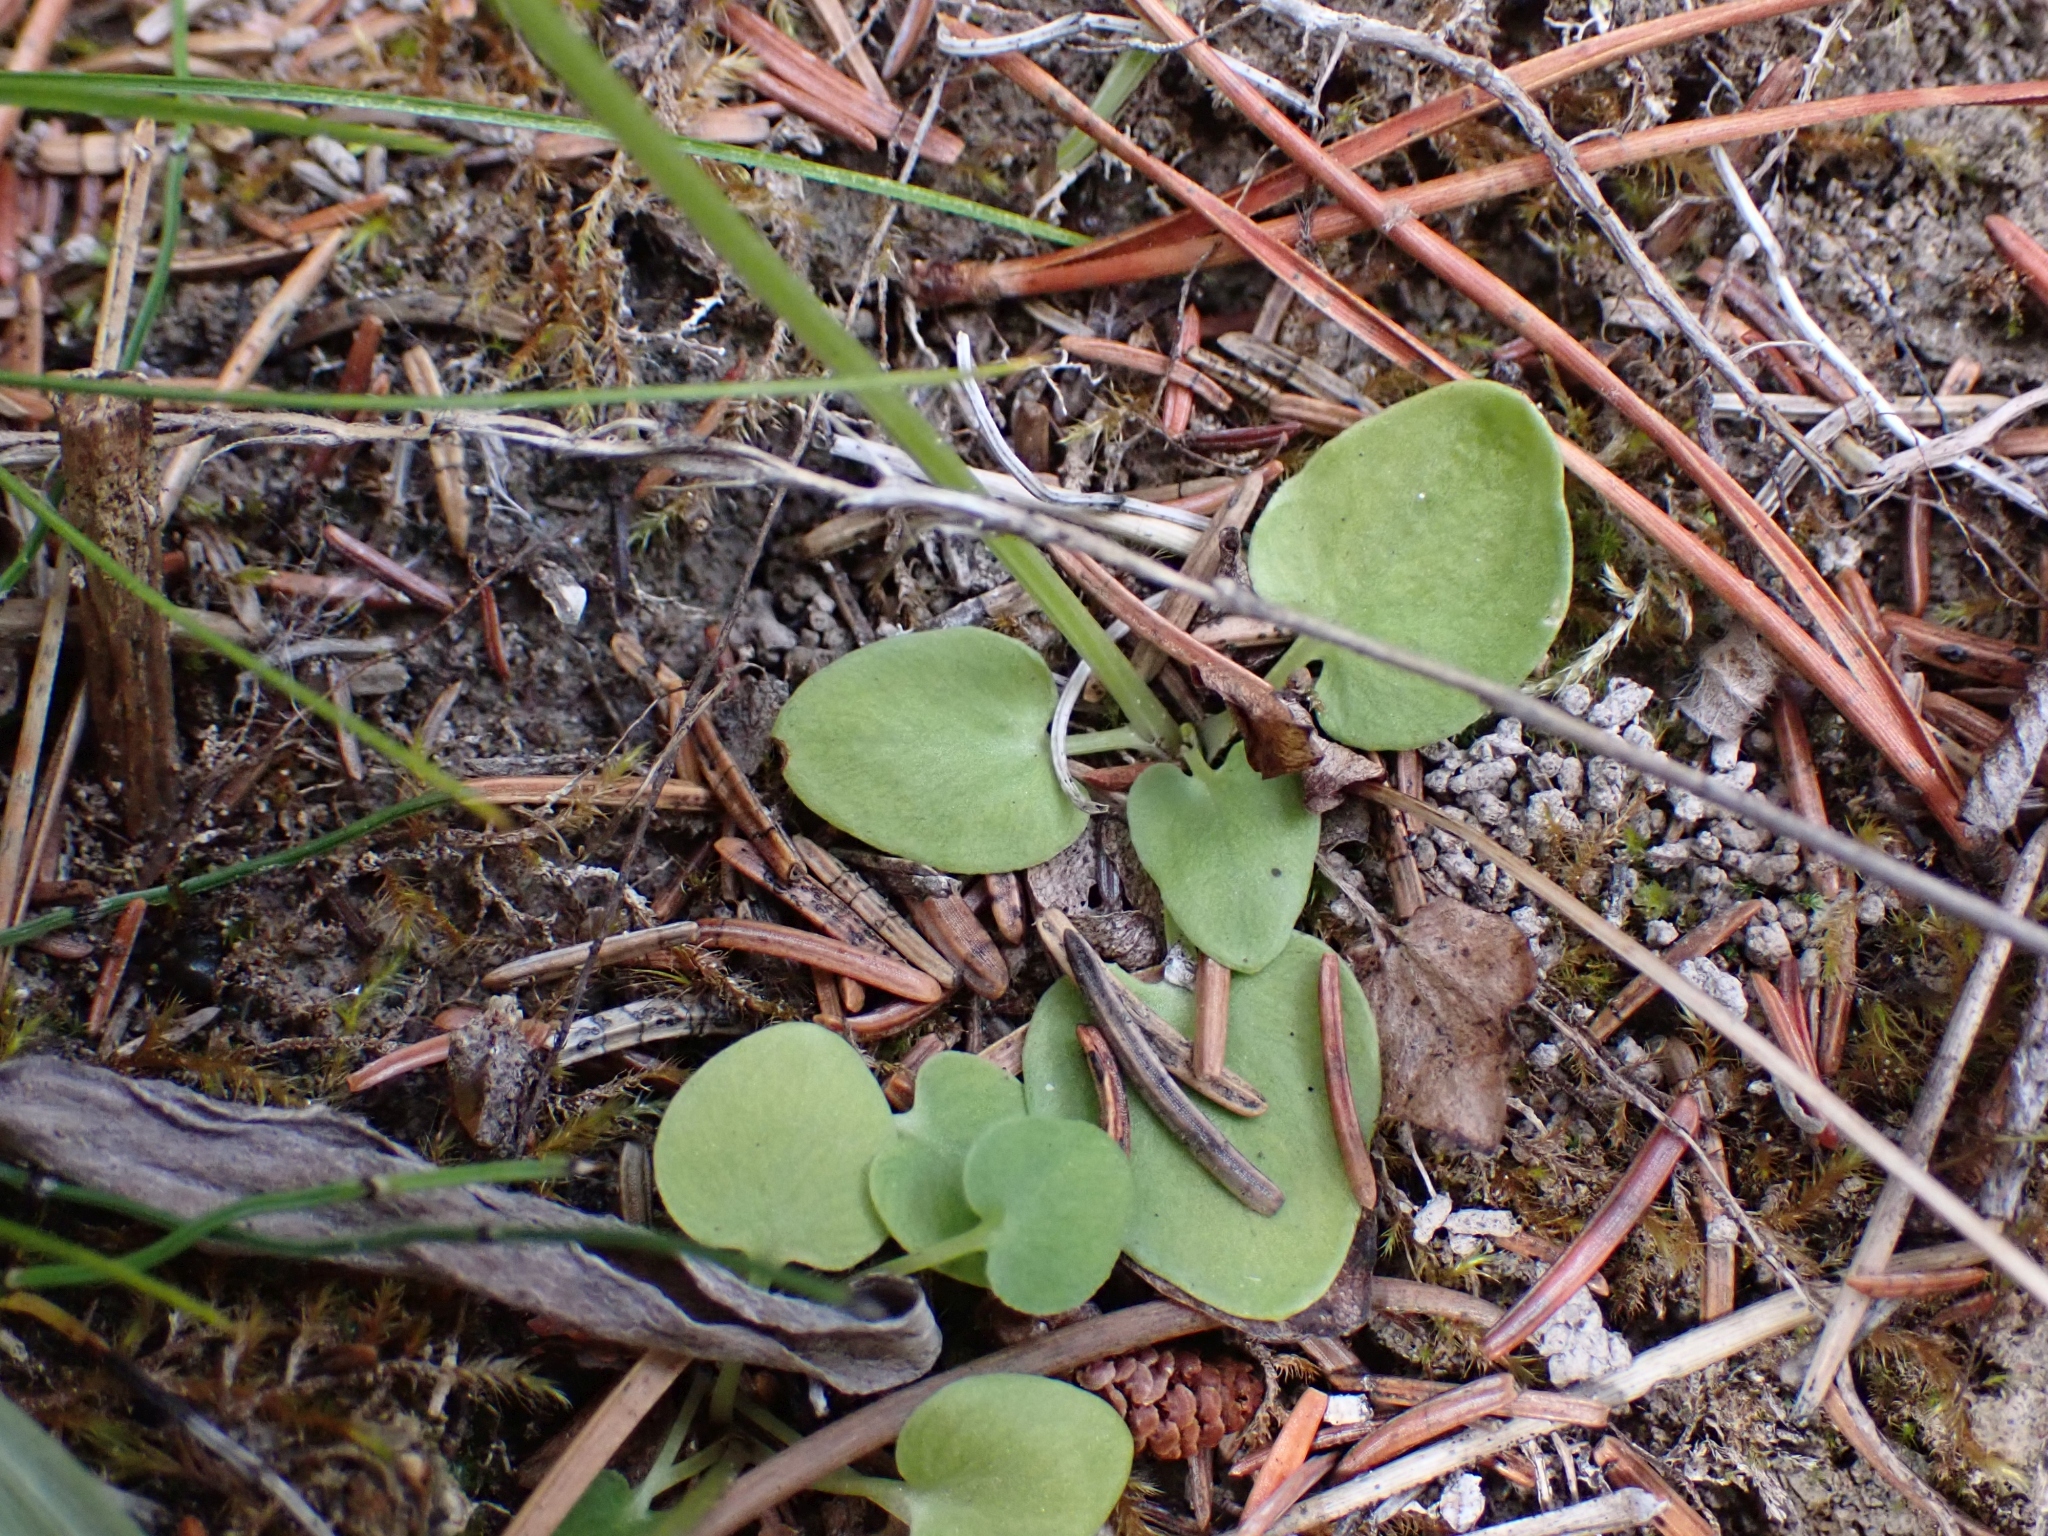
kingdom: Plantae
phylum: Tracheophyta
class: Magnoliopsida
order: Celastrales
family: Parnassiaceae
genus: Parnassia
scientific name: Parnassia palustris
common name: Grass-of-parnassus
